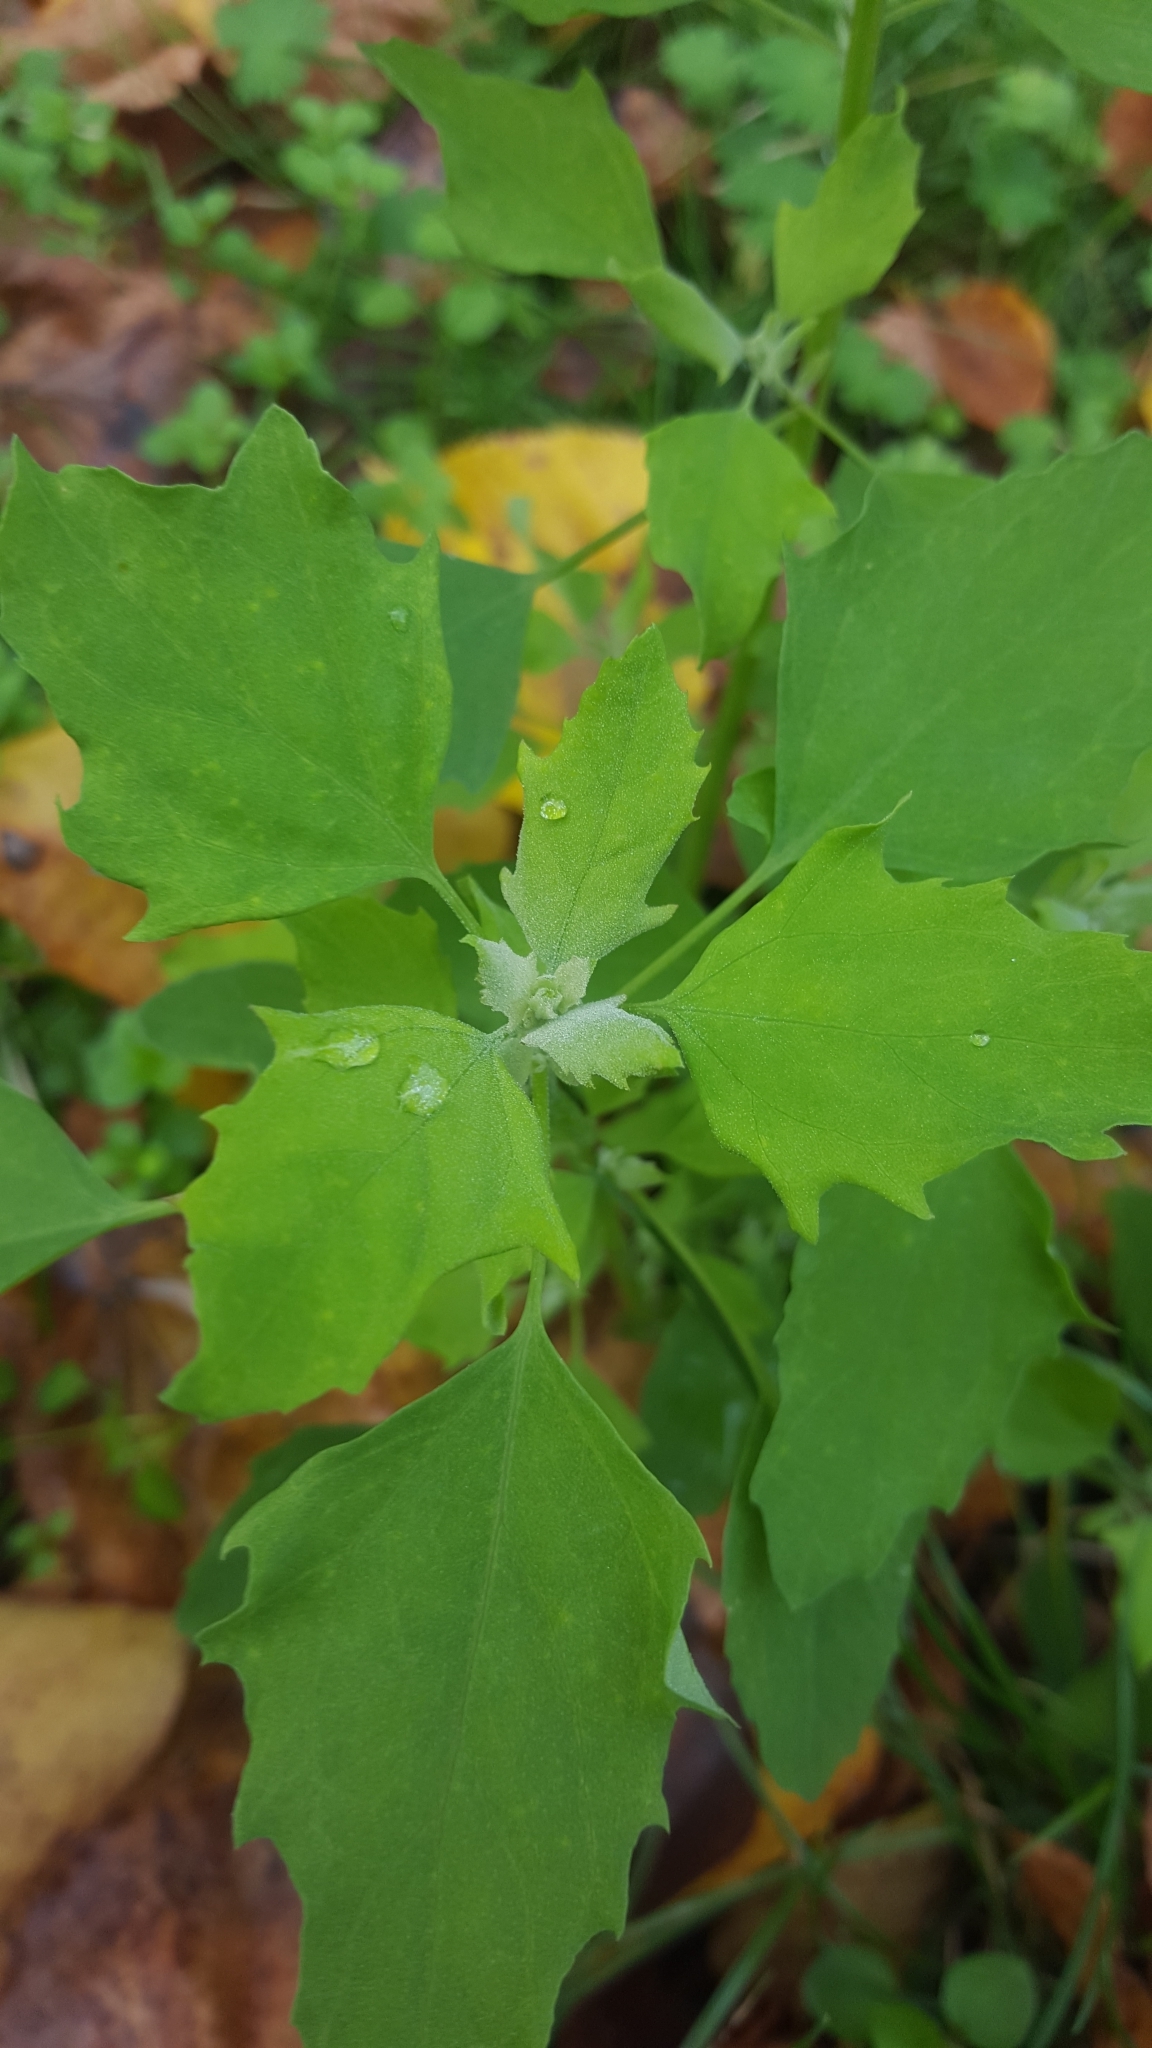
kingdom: Plantae
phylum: Tracheophyta
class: Magnoliopsida
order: Caryophyllales
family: Amaranthaceae
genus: Chenopodium
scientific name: Chenopodium album
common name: Fat-hen
